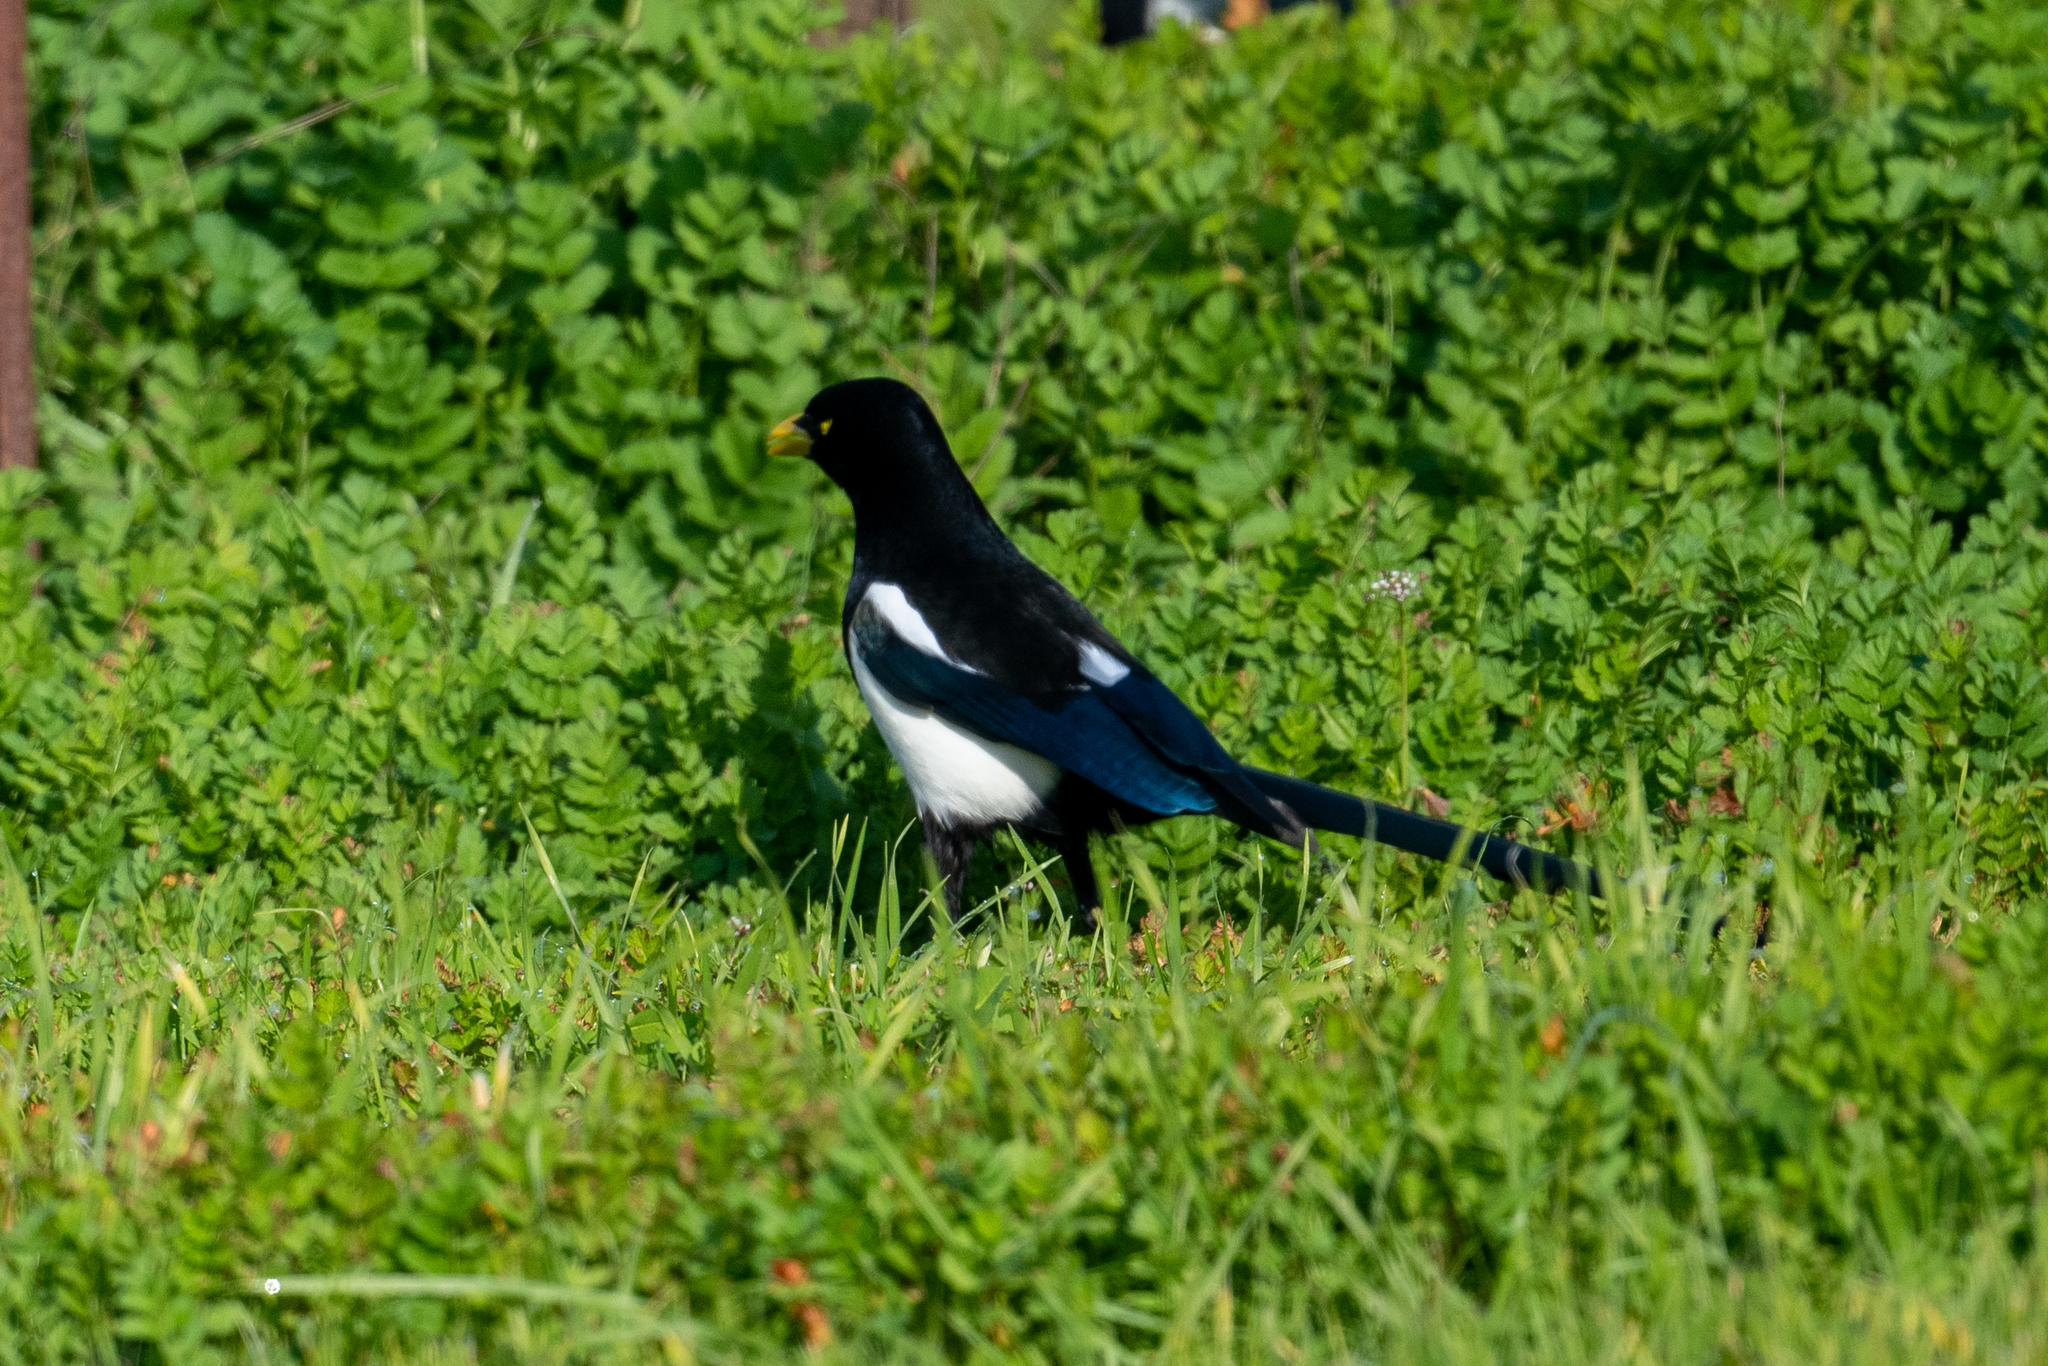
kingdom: Animalia
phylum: Chordata
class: Aves
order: Passeriformes
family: Corvidae
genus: Pica
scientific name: Pica nuttalli
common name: Yellow-billed magpie
